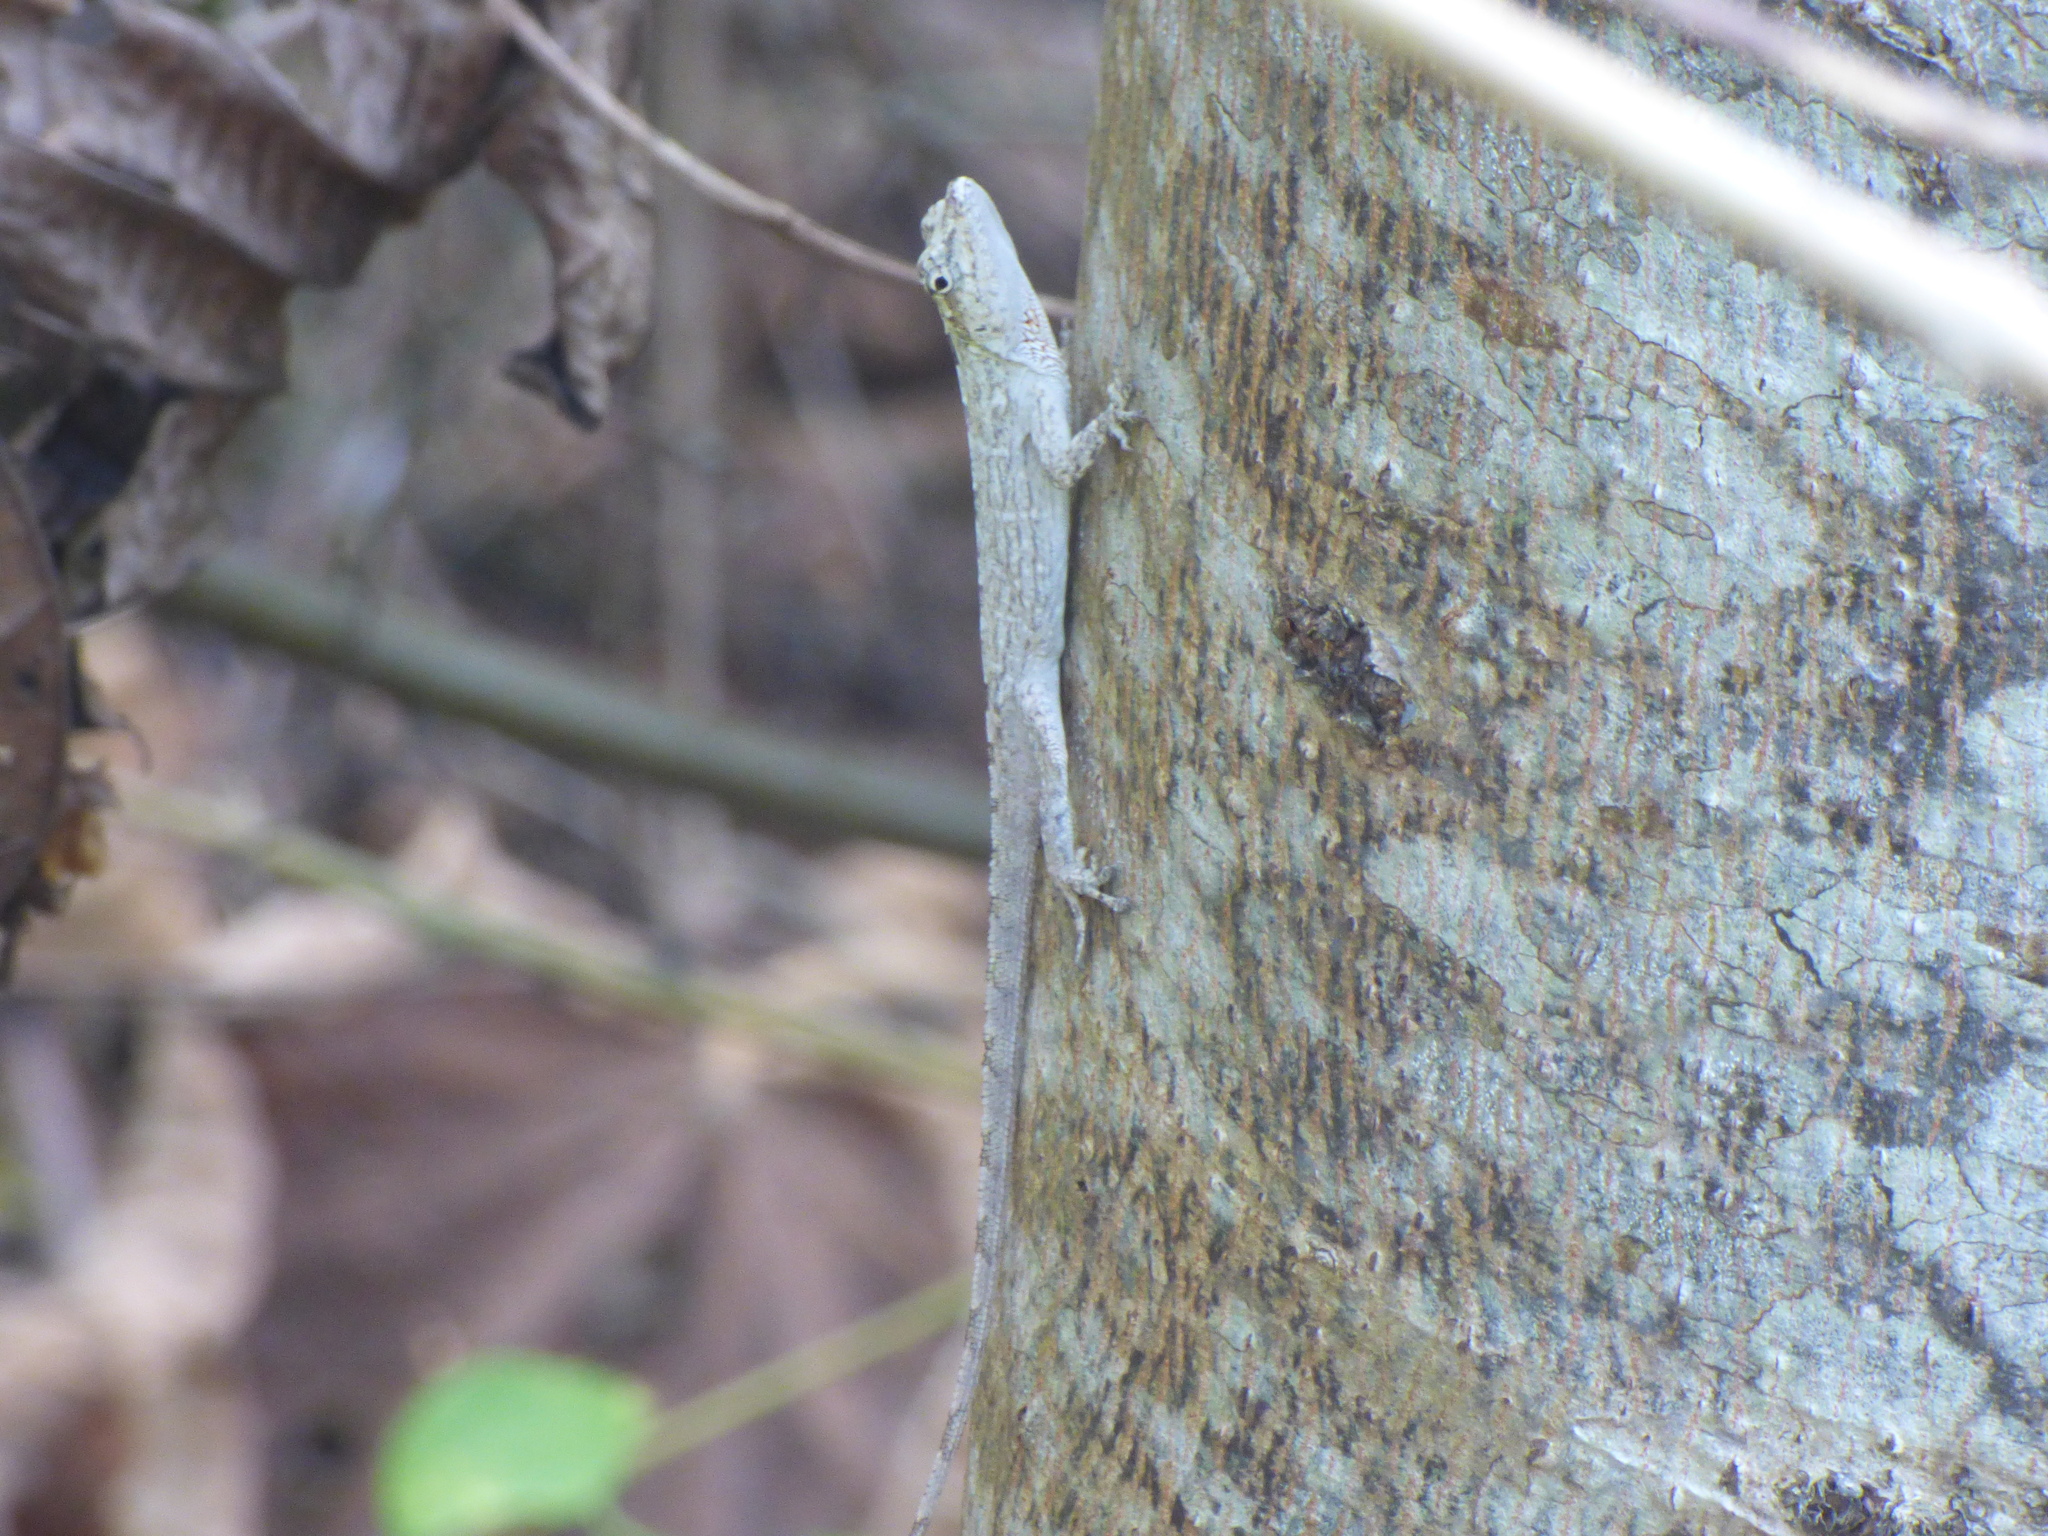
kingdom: Animalia
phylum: Chordata
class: Squamata
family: Dactyloidae
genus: Anolis
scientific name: Anolis sulcifrons
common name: Grooved anole
